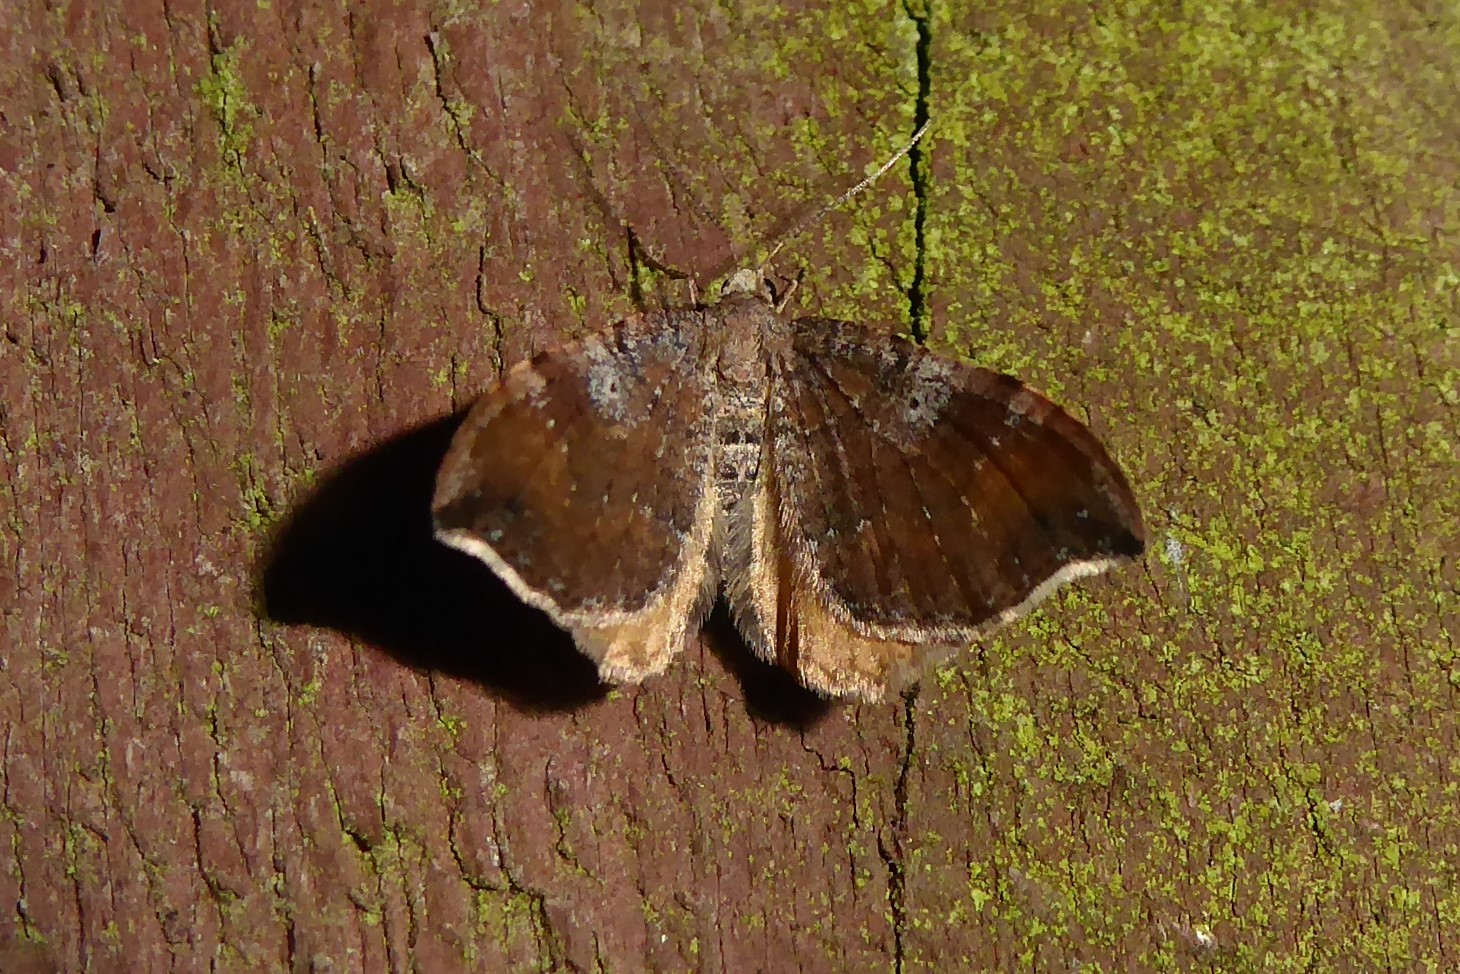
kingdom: Animalia
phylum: Arthropoda
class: Insecta
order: Lepidoptera
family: Geometridae
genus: Homodotis
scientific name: Homodotis megaspilata
